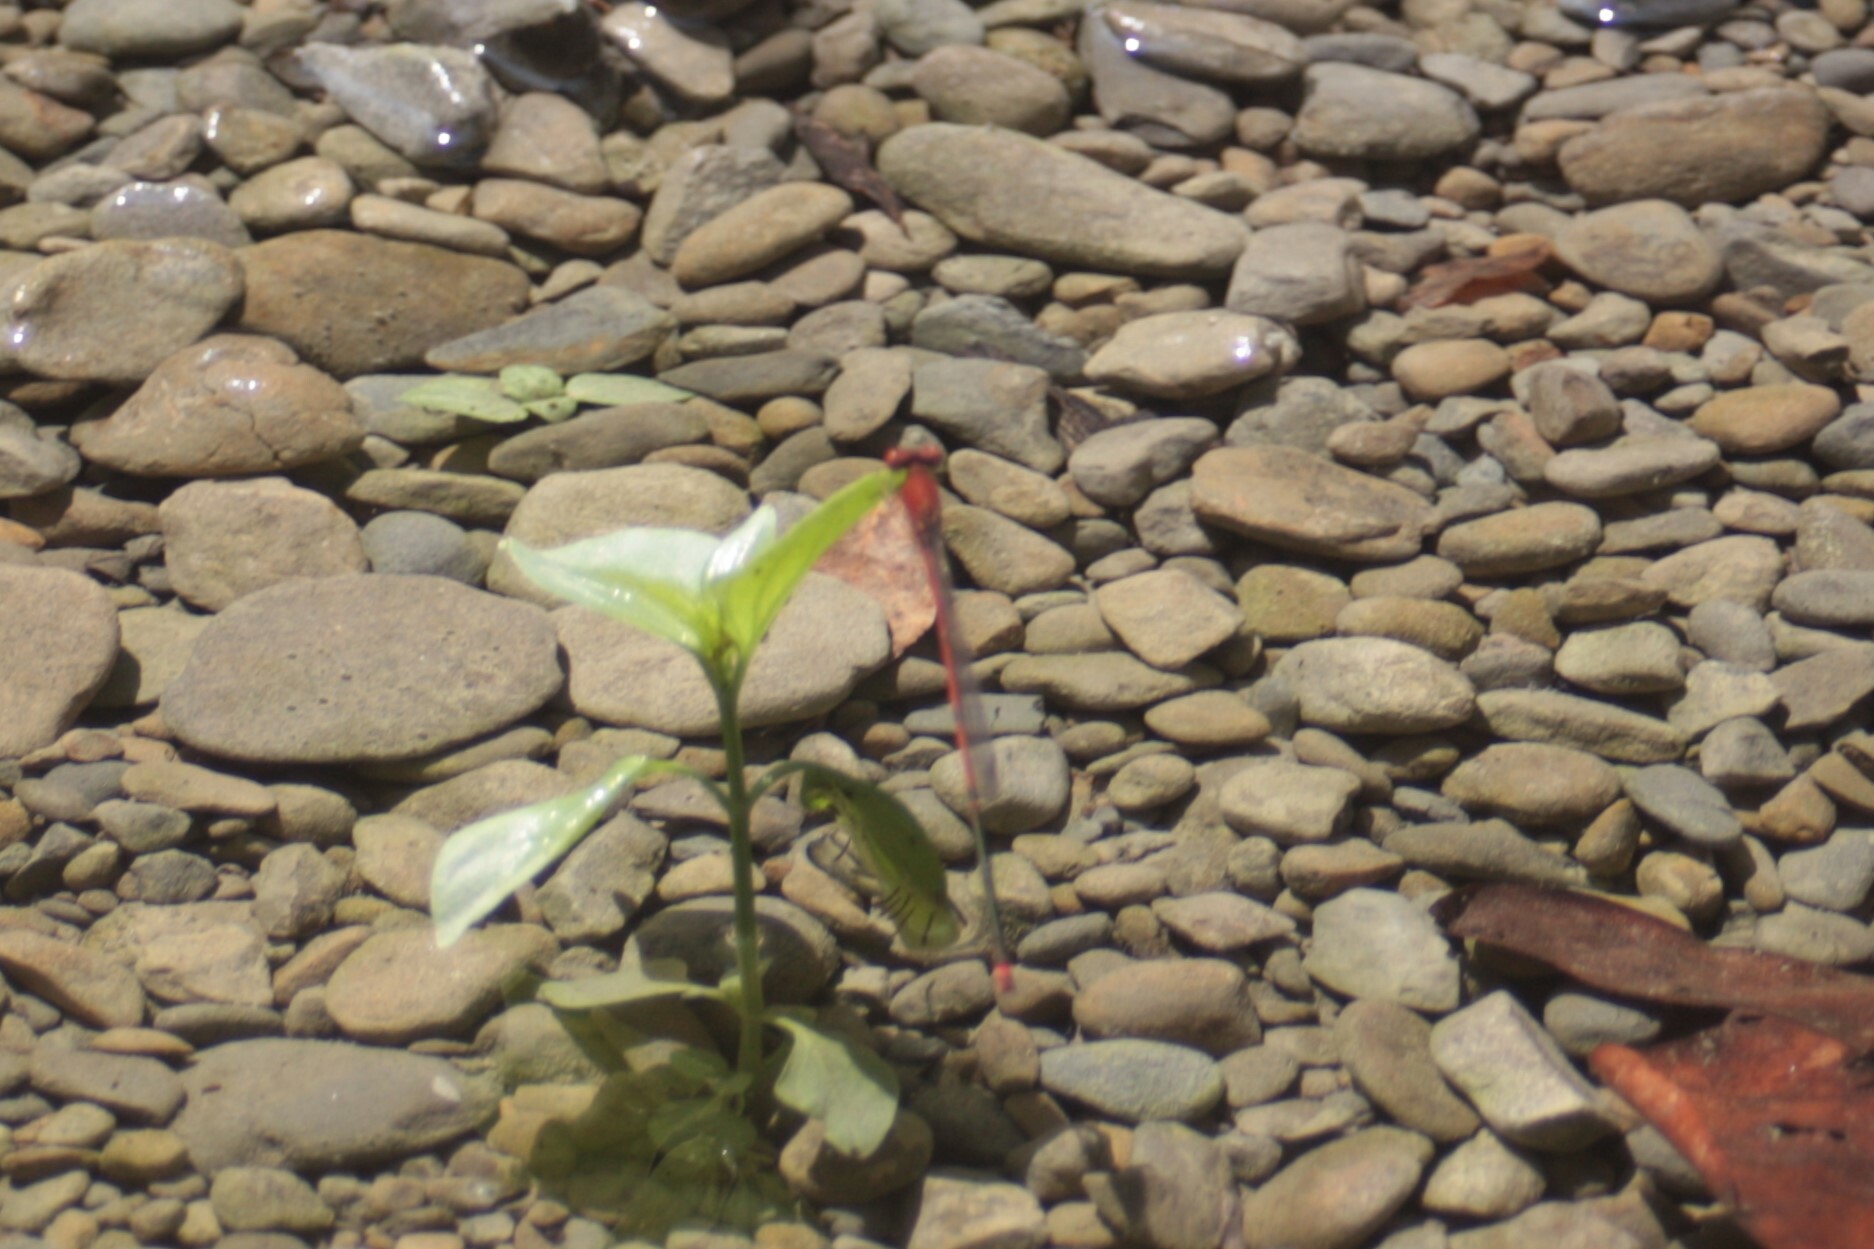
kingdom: Animalia
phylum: Arthropoda
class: Insecta
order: Odonata
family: Coenagrionidae
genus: Pseudagrion
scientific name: Pseudagrion pilidorsum
